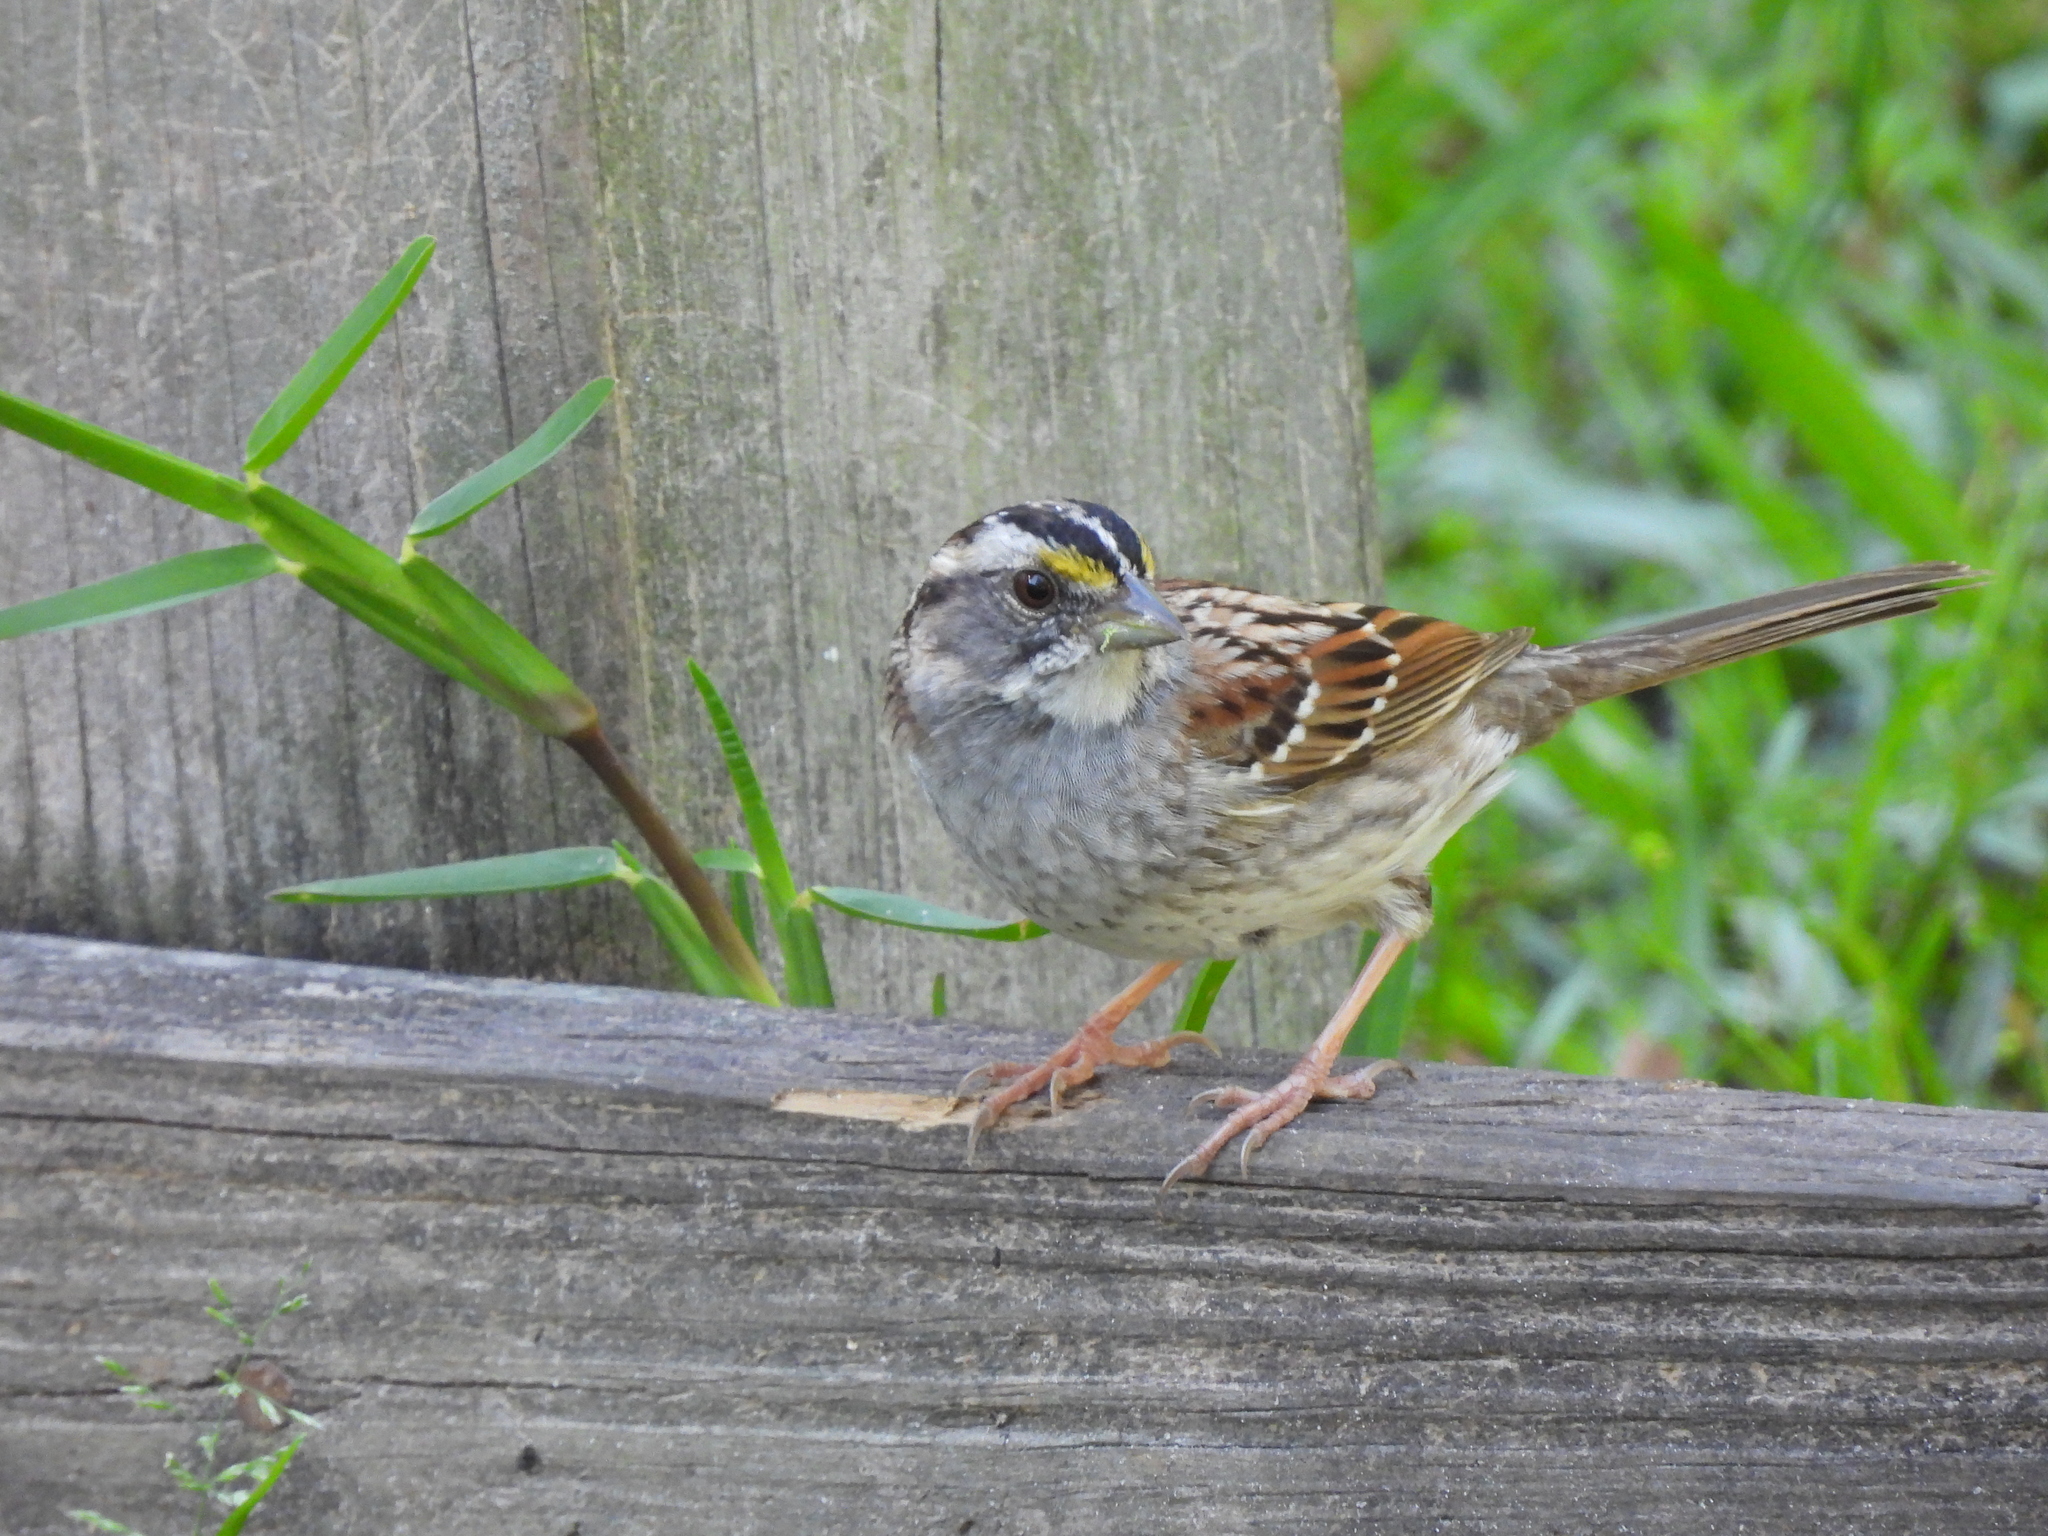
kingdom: Animalia
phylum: Chordata
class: Aves
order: Passeriformes
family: Passerellidae
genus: Zonotrichia
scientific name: Zonotrichia albicollis
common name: White-throated sparrow
